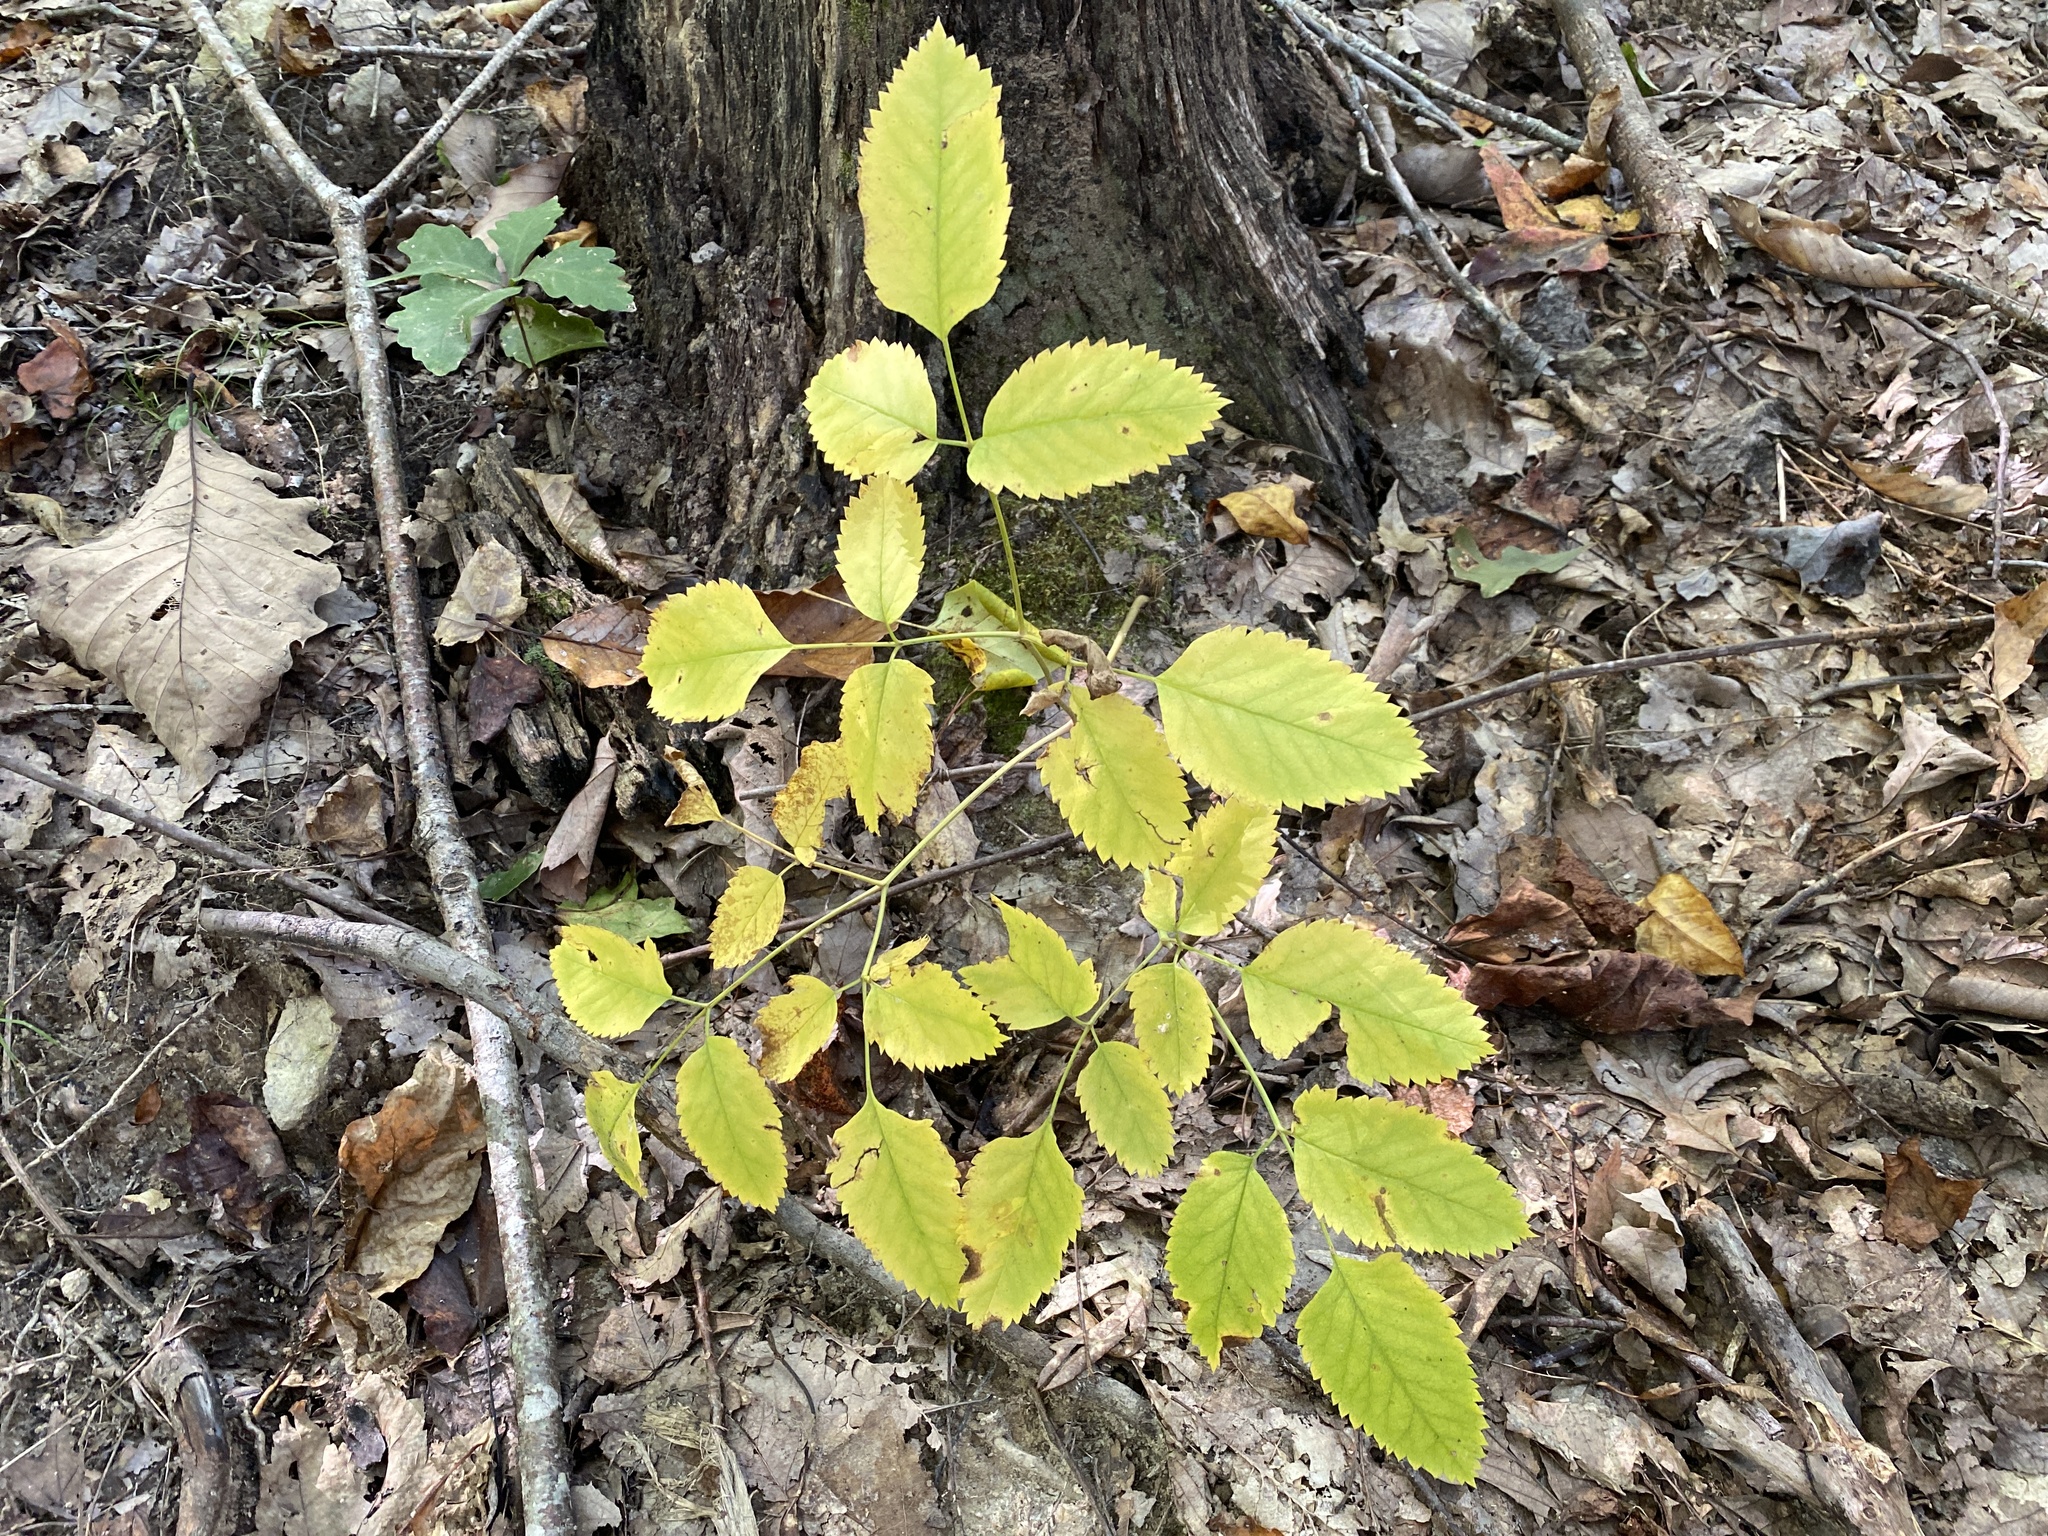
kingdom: Plantae
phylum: Tracheophyta
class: Magnoliopsida
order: Apiales
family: Apiaceae
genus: Ligusticum
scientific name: Ligusticum canadense
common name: American lovage
